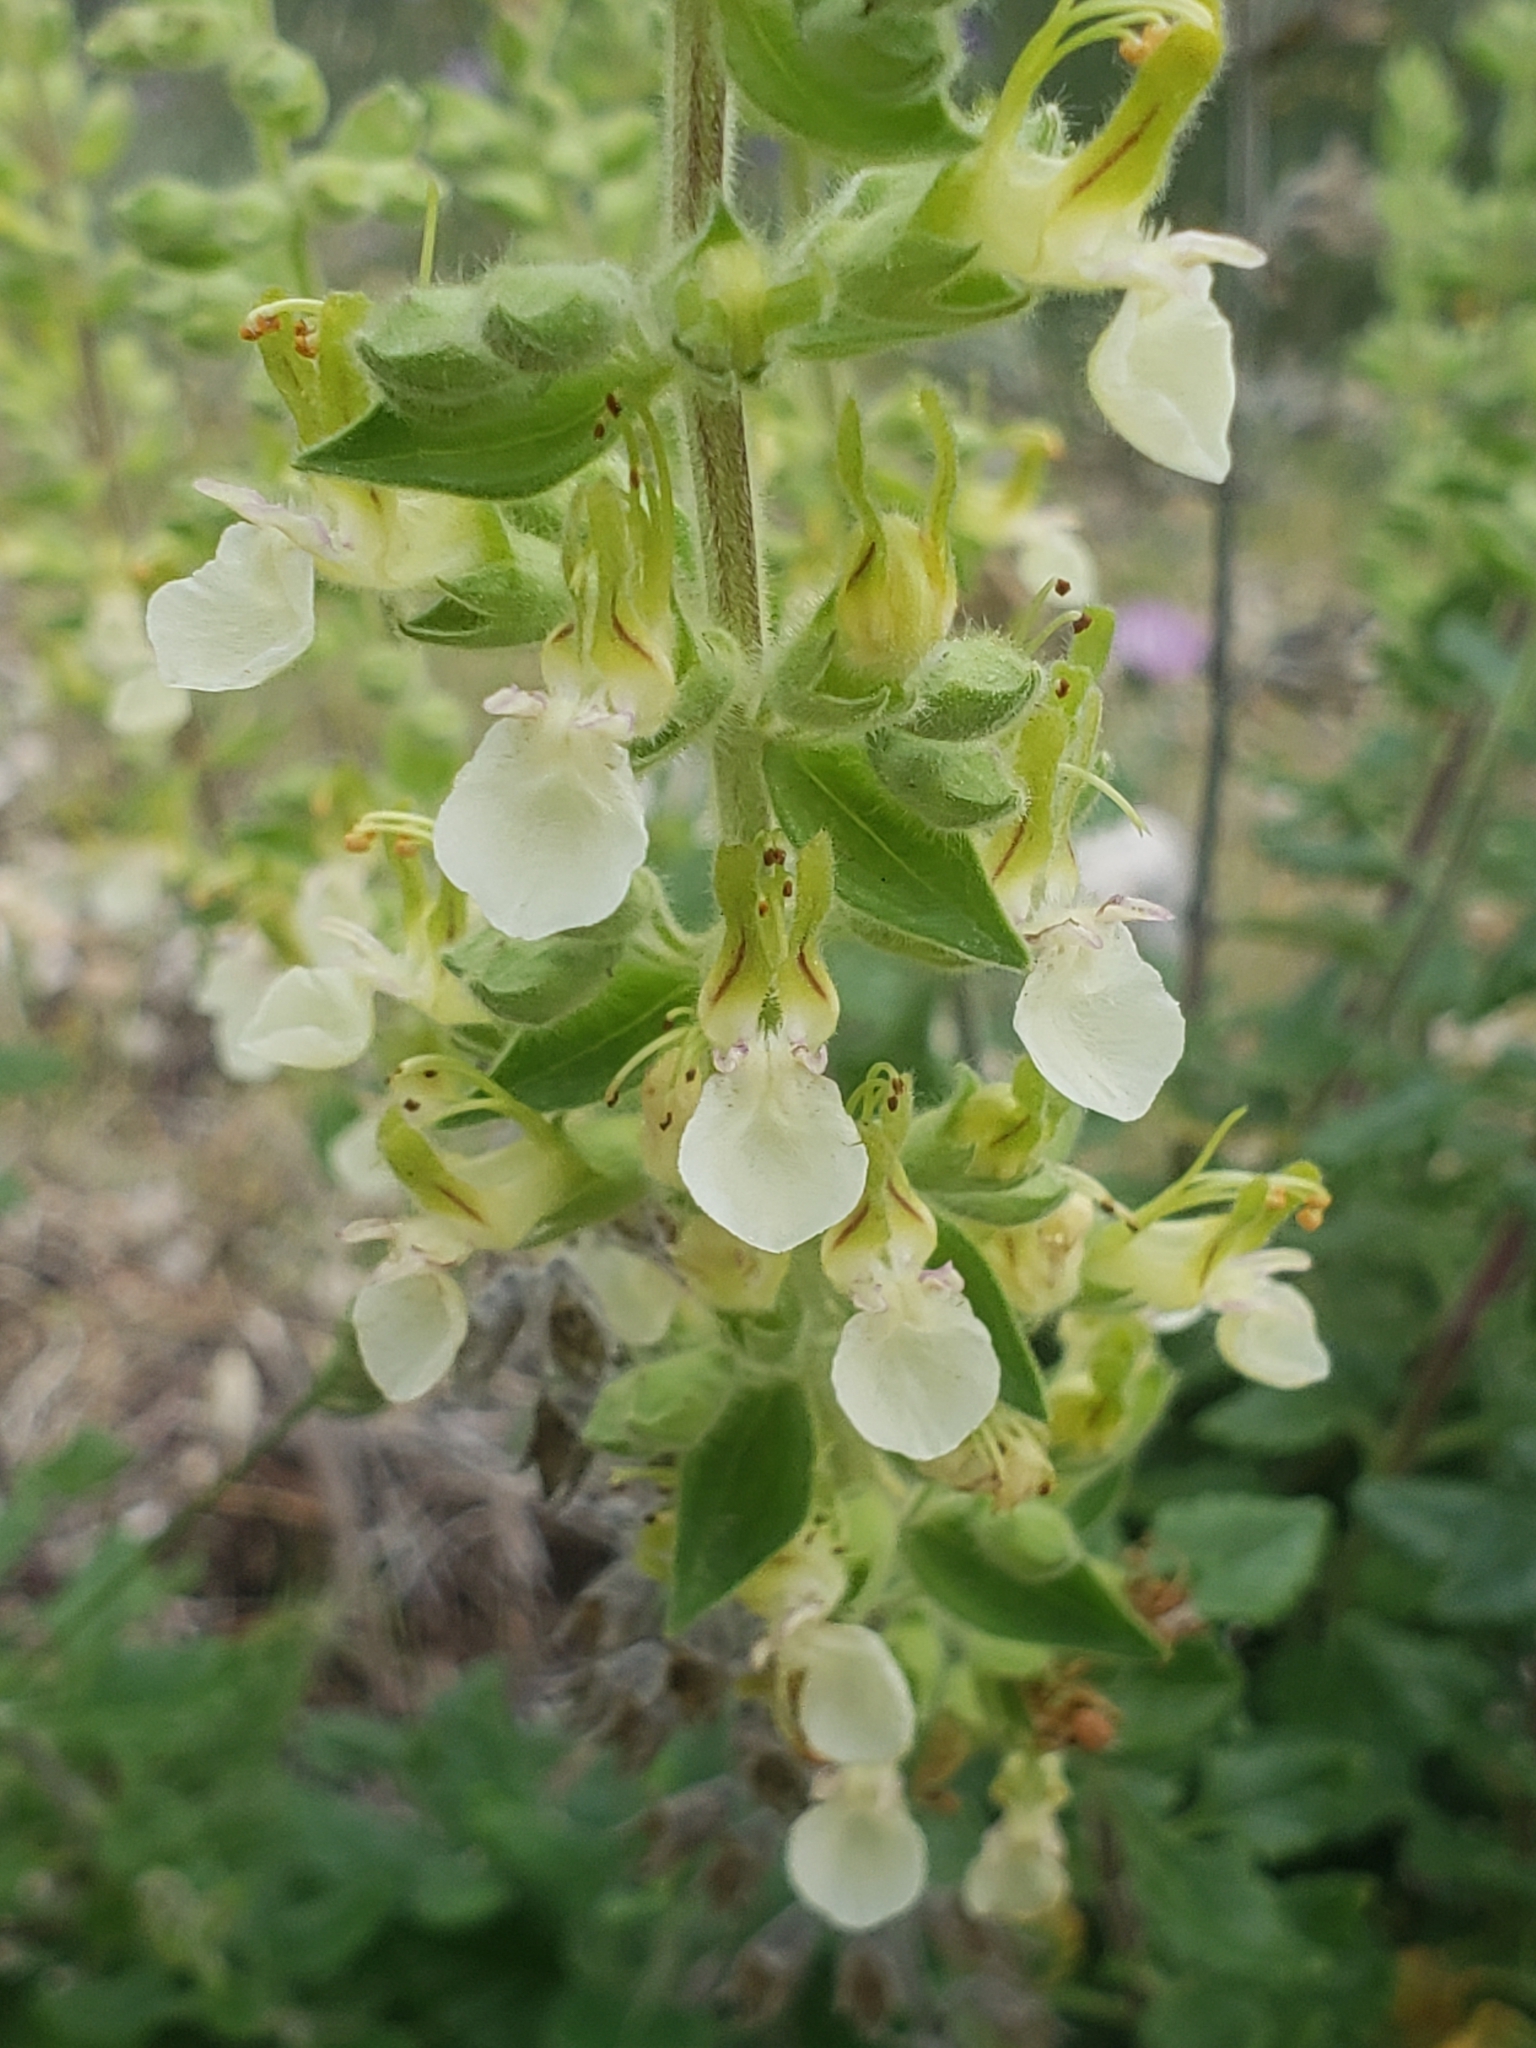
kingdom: Plantae
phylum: Tracheophyta
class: Magnoliopsida
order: Lamiales
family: Lamiaceae
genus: Teucrium
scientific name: Teucrium flavum
